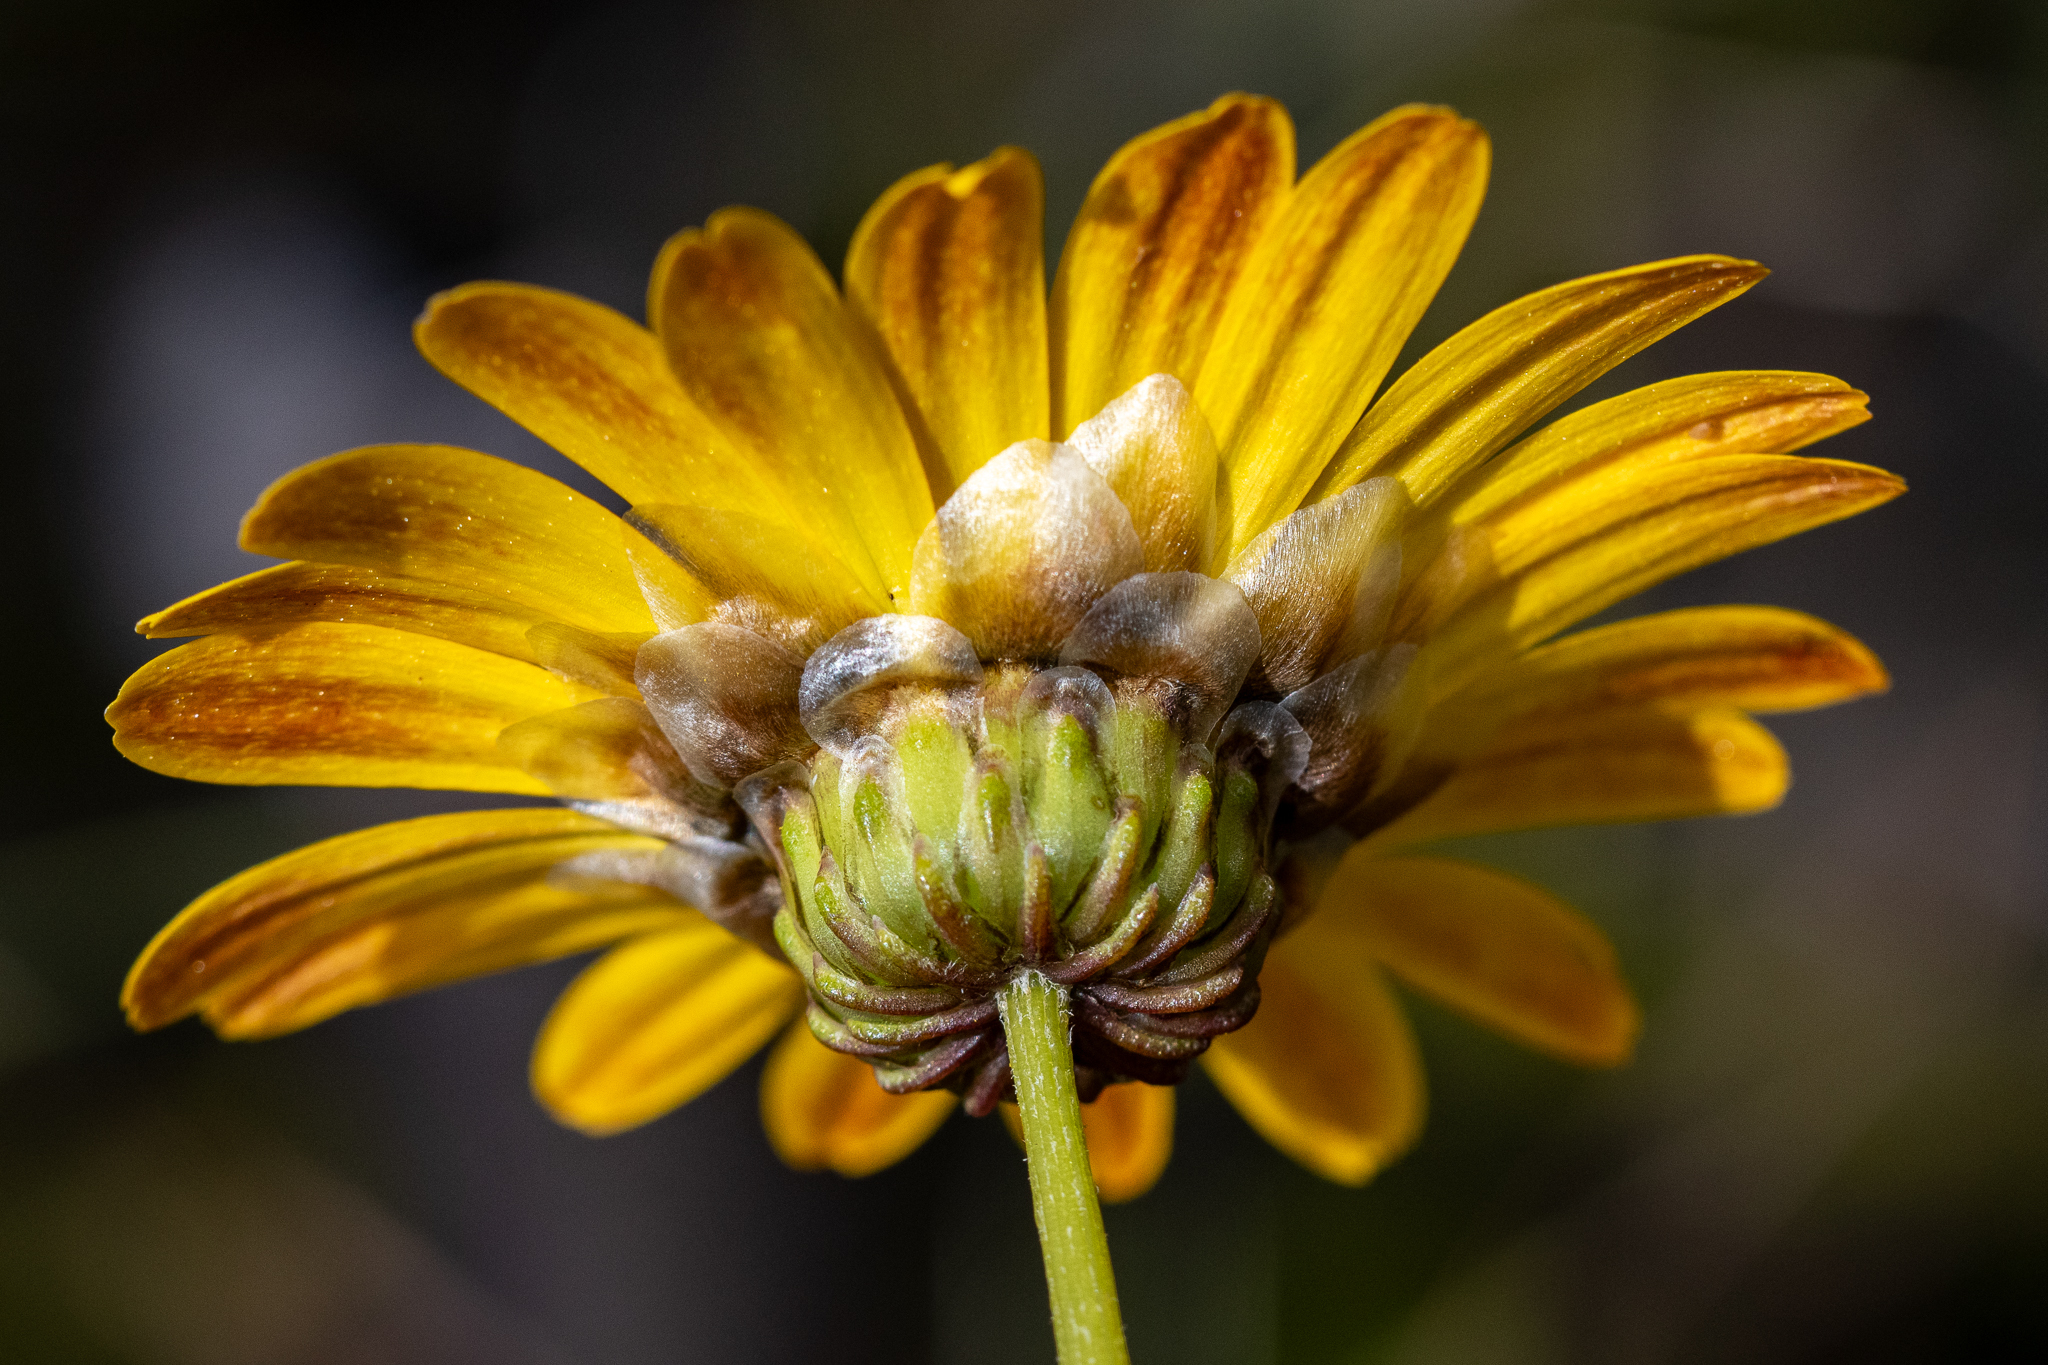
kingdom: Plantae
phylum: Tracheophyta
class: Magnoliopsida
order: Asterales
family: Asteraceae
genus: Ursinia
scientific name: Ursinia paleacea
